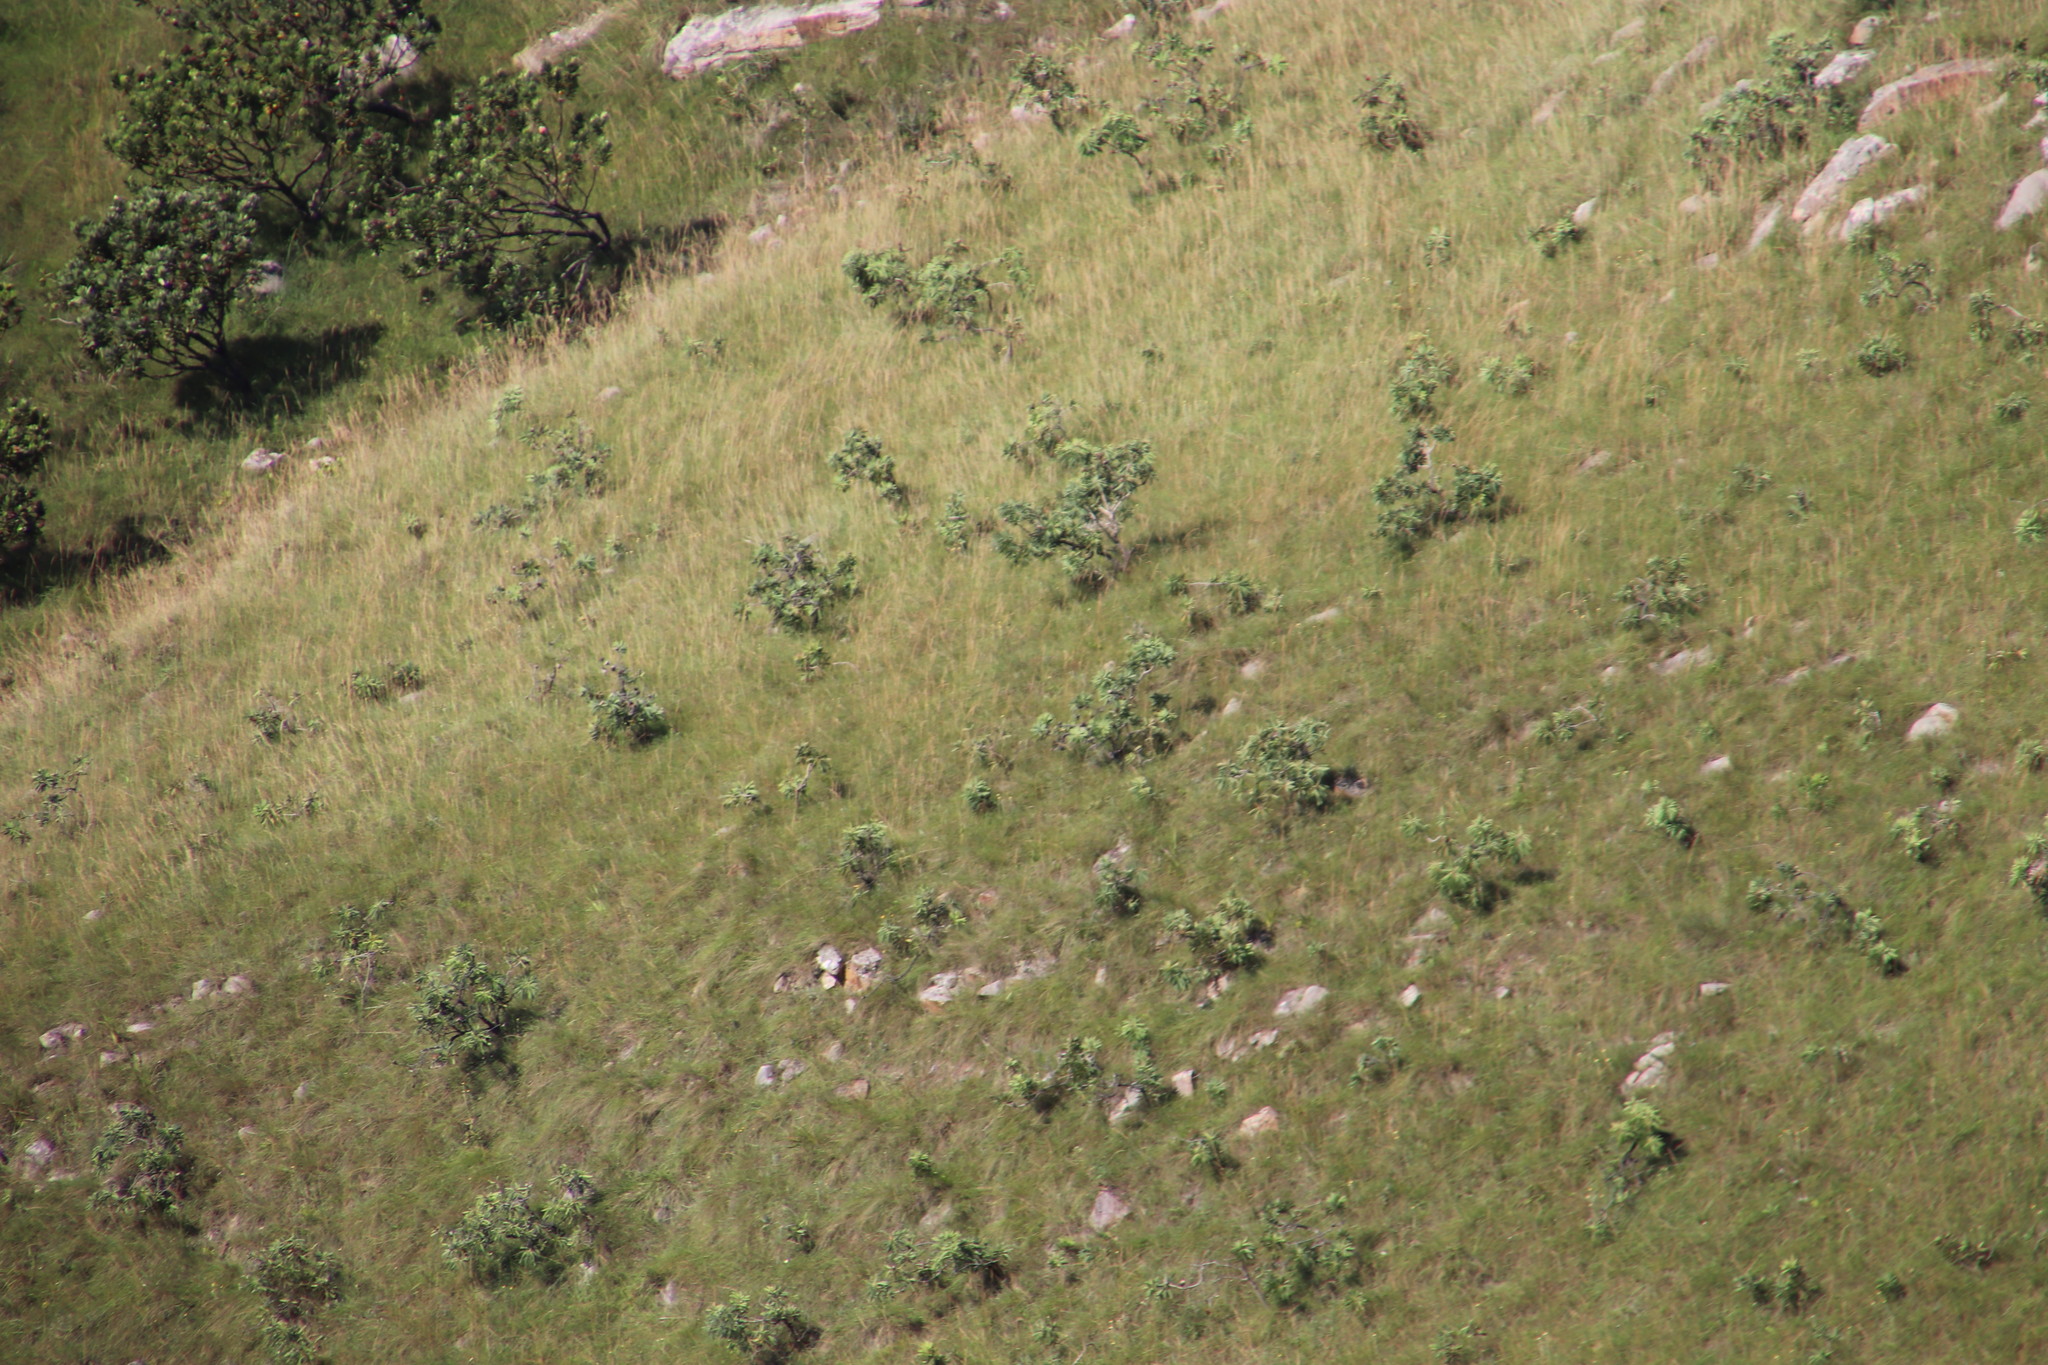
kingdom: Plantae
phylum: Tracheophyta
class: Magnoliopsida
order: Proteales
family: Proteaceae
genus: Protea
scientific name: Protea caffra
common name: Common sugarbush
